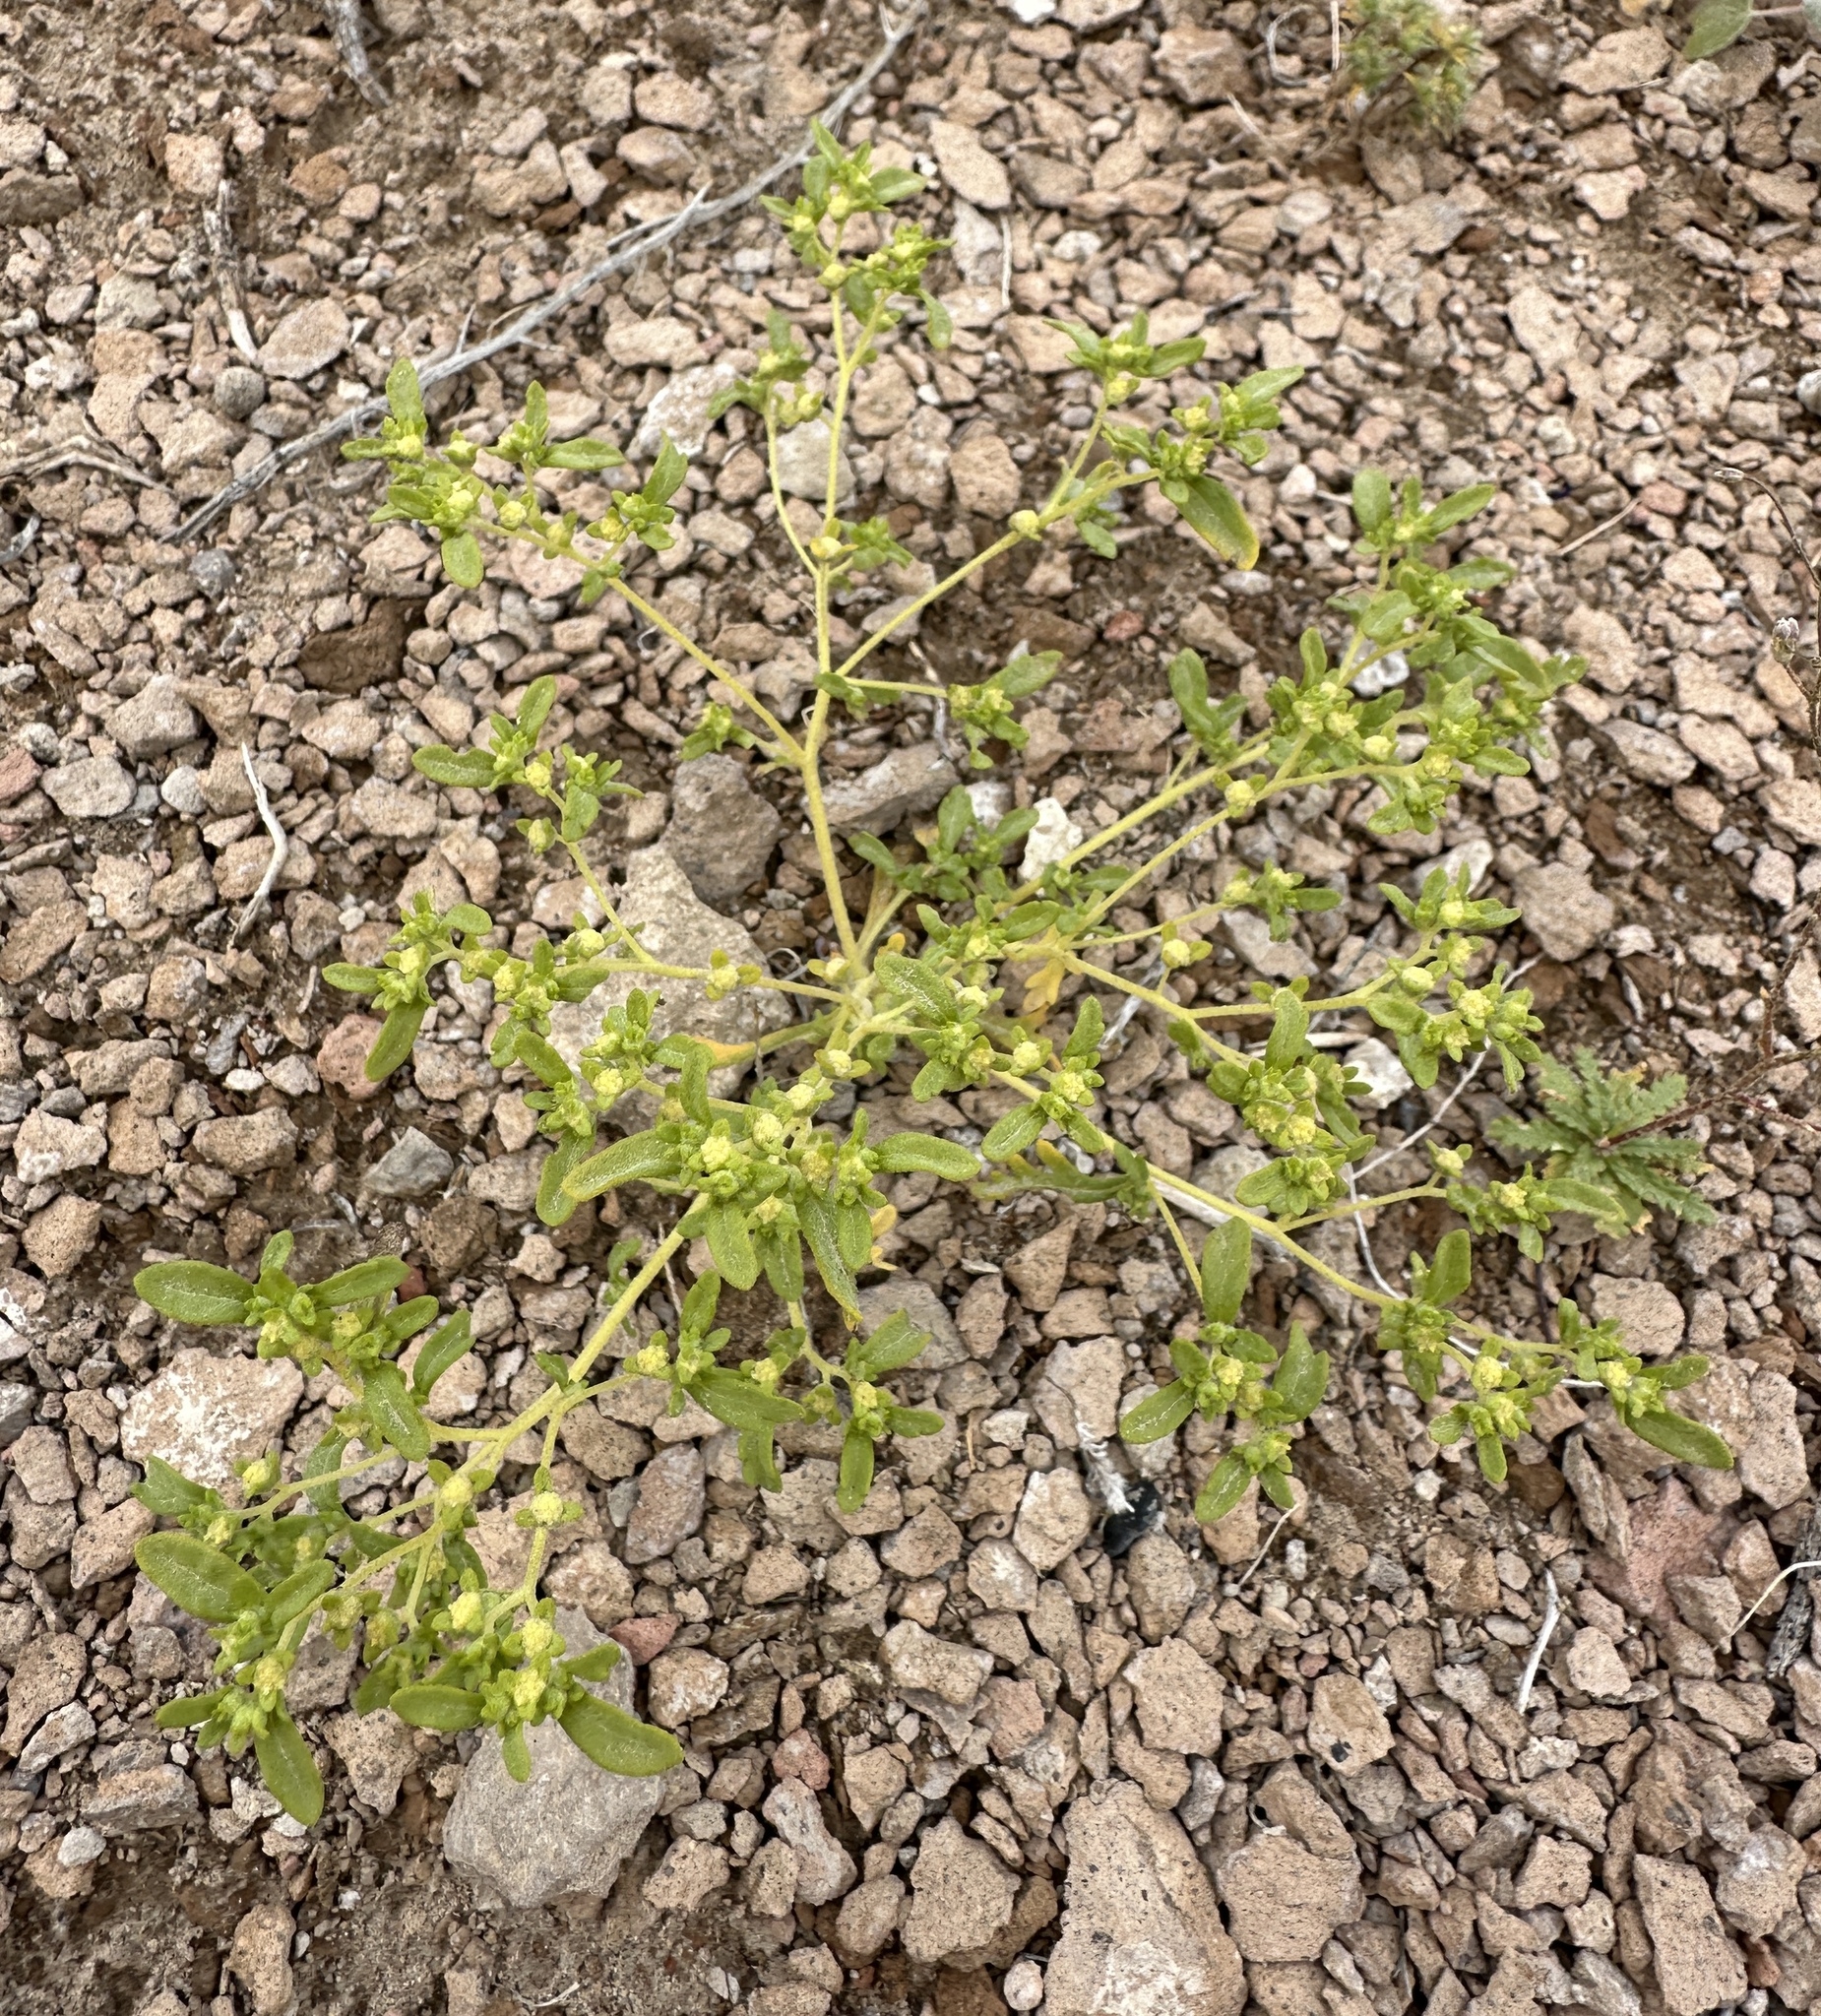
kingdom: Plantae
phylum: Tracheophyta
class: Magnoliopsida
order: Asterales
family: Asteraceae
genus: Euphrosyne
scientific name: Euphrosyne nevadensis
